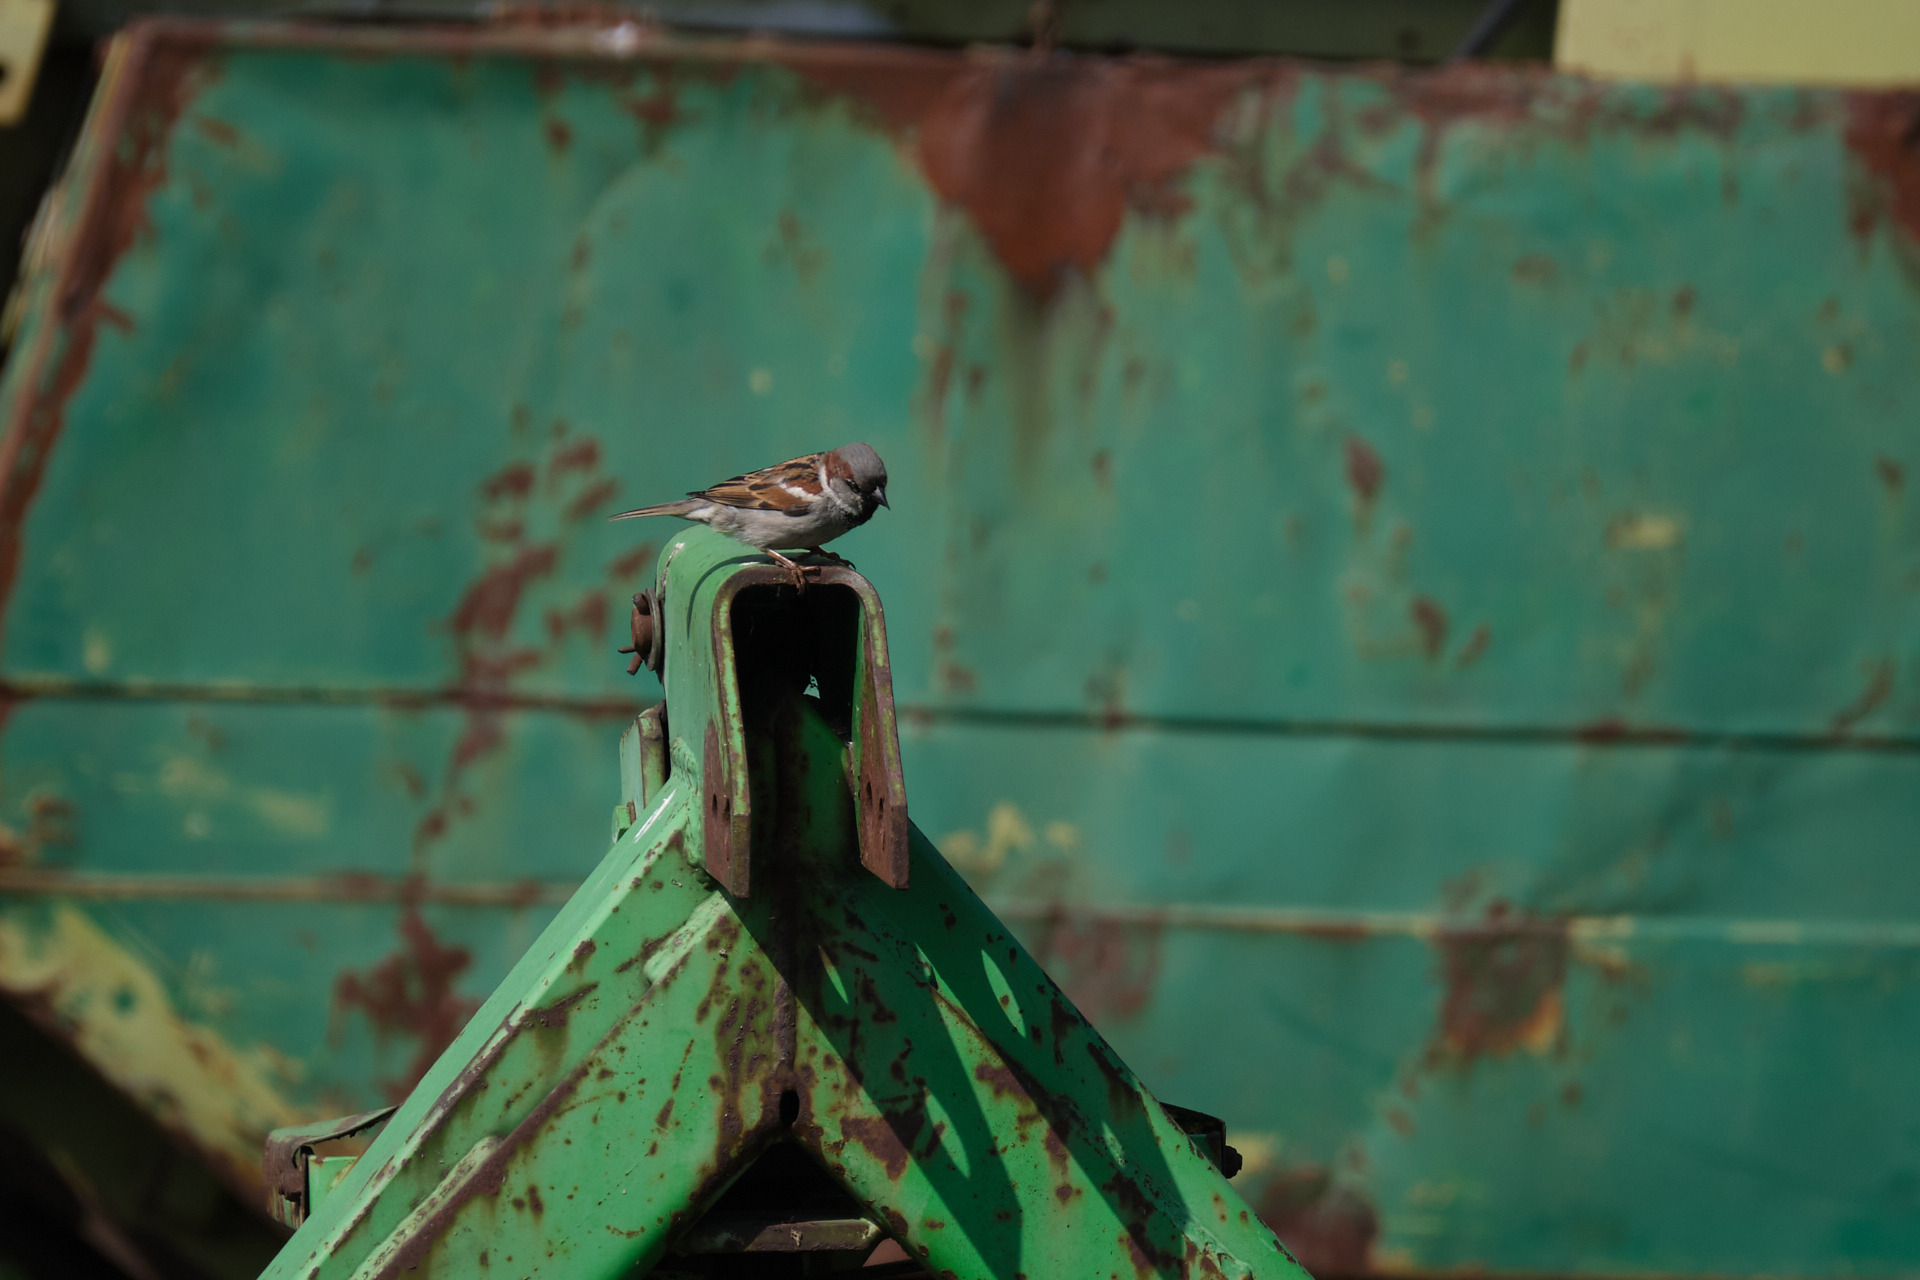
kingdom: Animalia
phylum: Chordata
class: Aves
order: Passeriformes
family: Passeridae
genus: Passer
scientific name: Passer domesticus
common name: House sparrow
